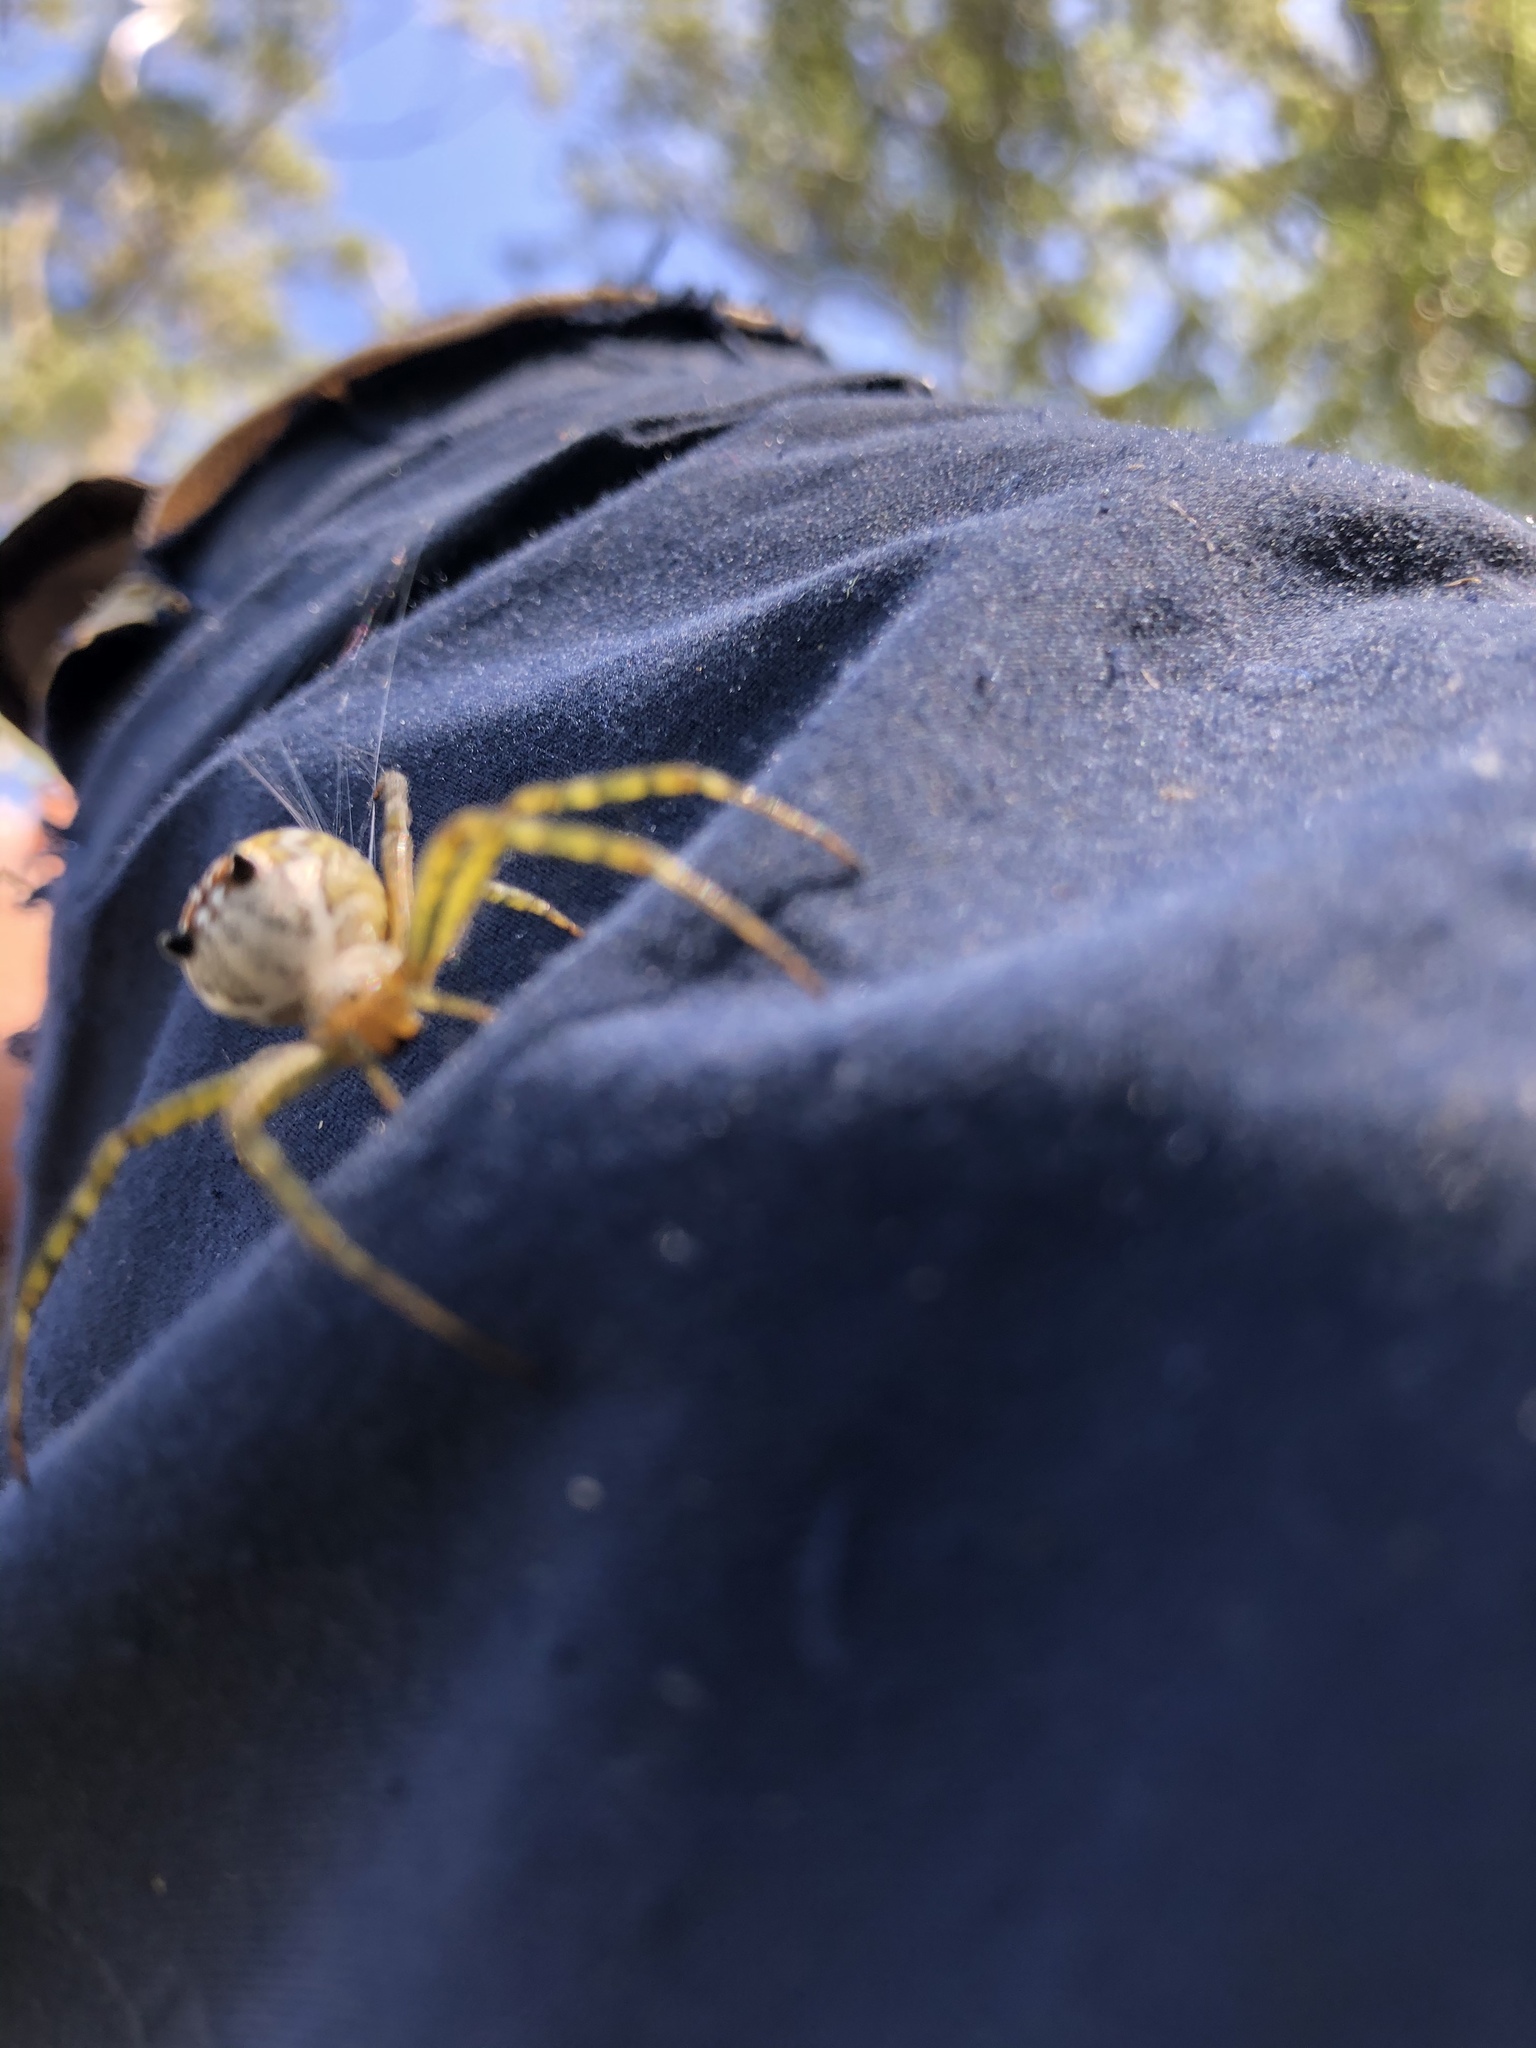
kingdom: Chromista
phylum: Ochrophyta
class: Dictyochophyceae
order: Pedinellales
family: Cyrtophoraceae
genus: Cyrtophora
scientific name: Cyrtophora moluccensis
